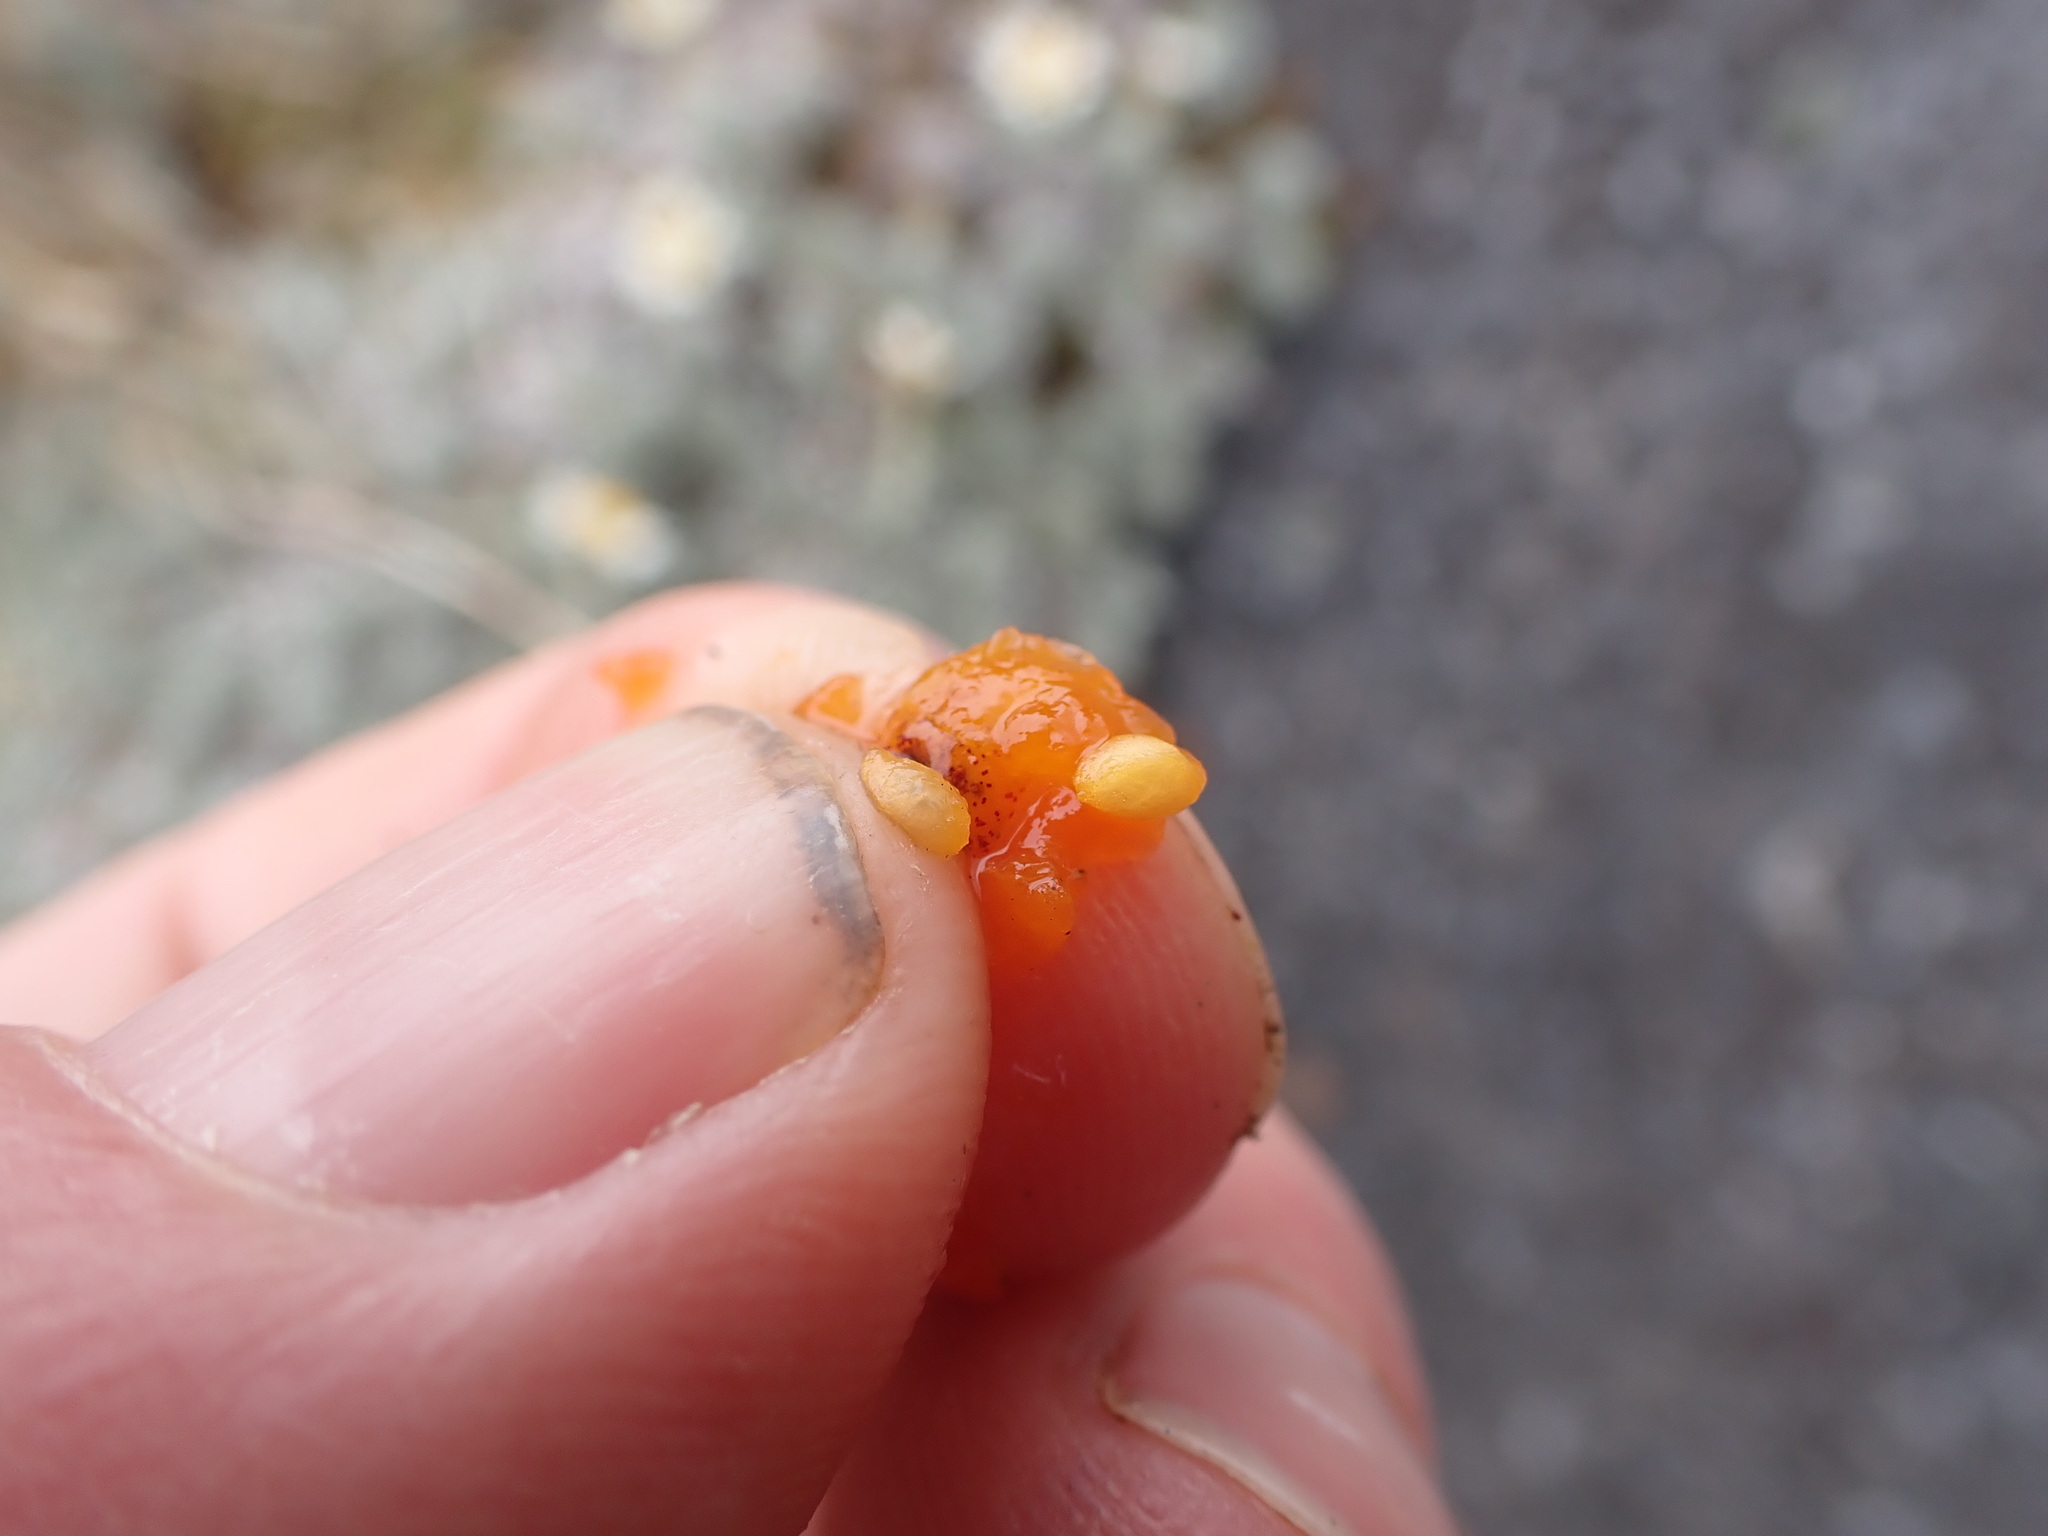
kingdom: Plantae
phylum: Tracheophyta
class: Magnoliopsida
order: Gentianales
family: Rubiaceae
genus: Coprosma
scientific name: Coprosma niphophila
